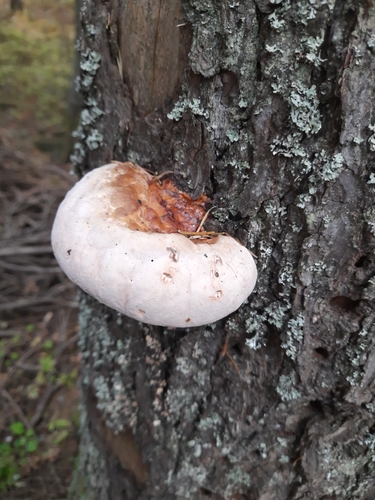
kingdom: Fungi
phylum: Basidiomycota
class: Agaricomycetes
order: Polyporales
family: Fomitopsidaceae
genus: Fomitopsis
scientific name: Fomitopsis pinicola
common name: Red-belted bracket
